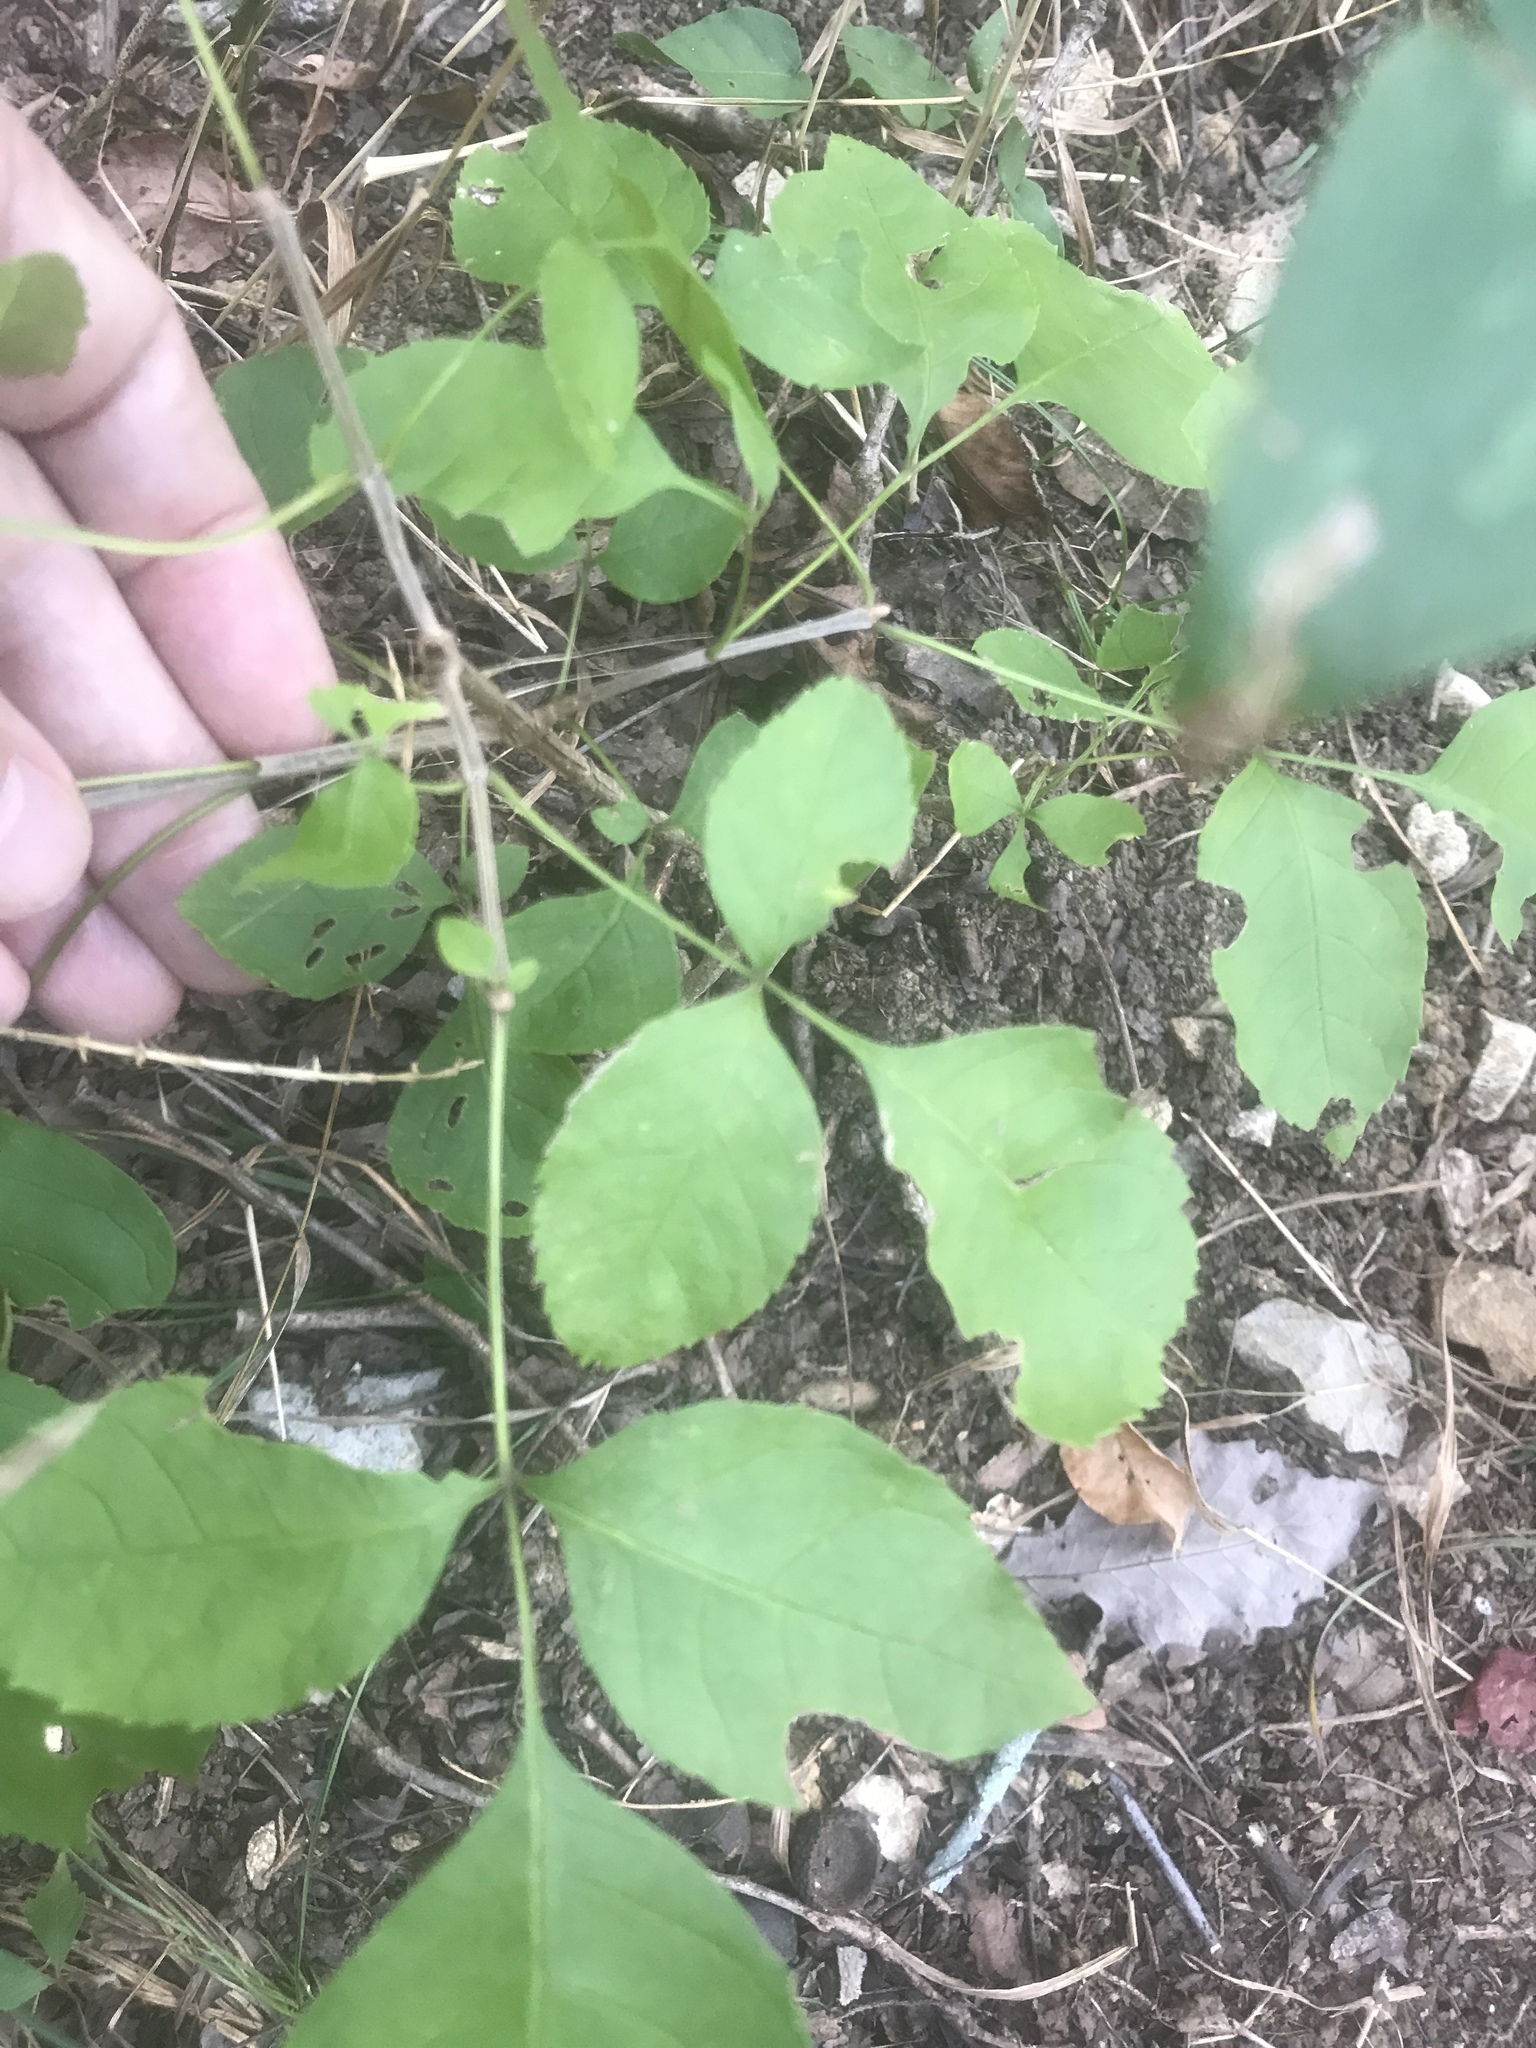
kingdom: Plantae
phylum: Tracheophyta
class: Magnoliopsida
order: Lamiales
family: Oleaceae
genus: Fraxinus
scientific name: Fraxinus quadrangulata
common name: Blue ash
